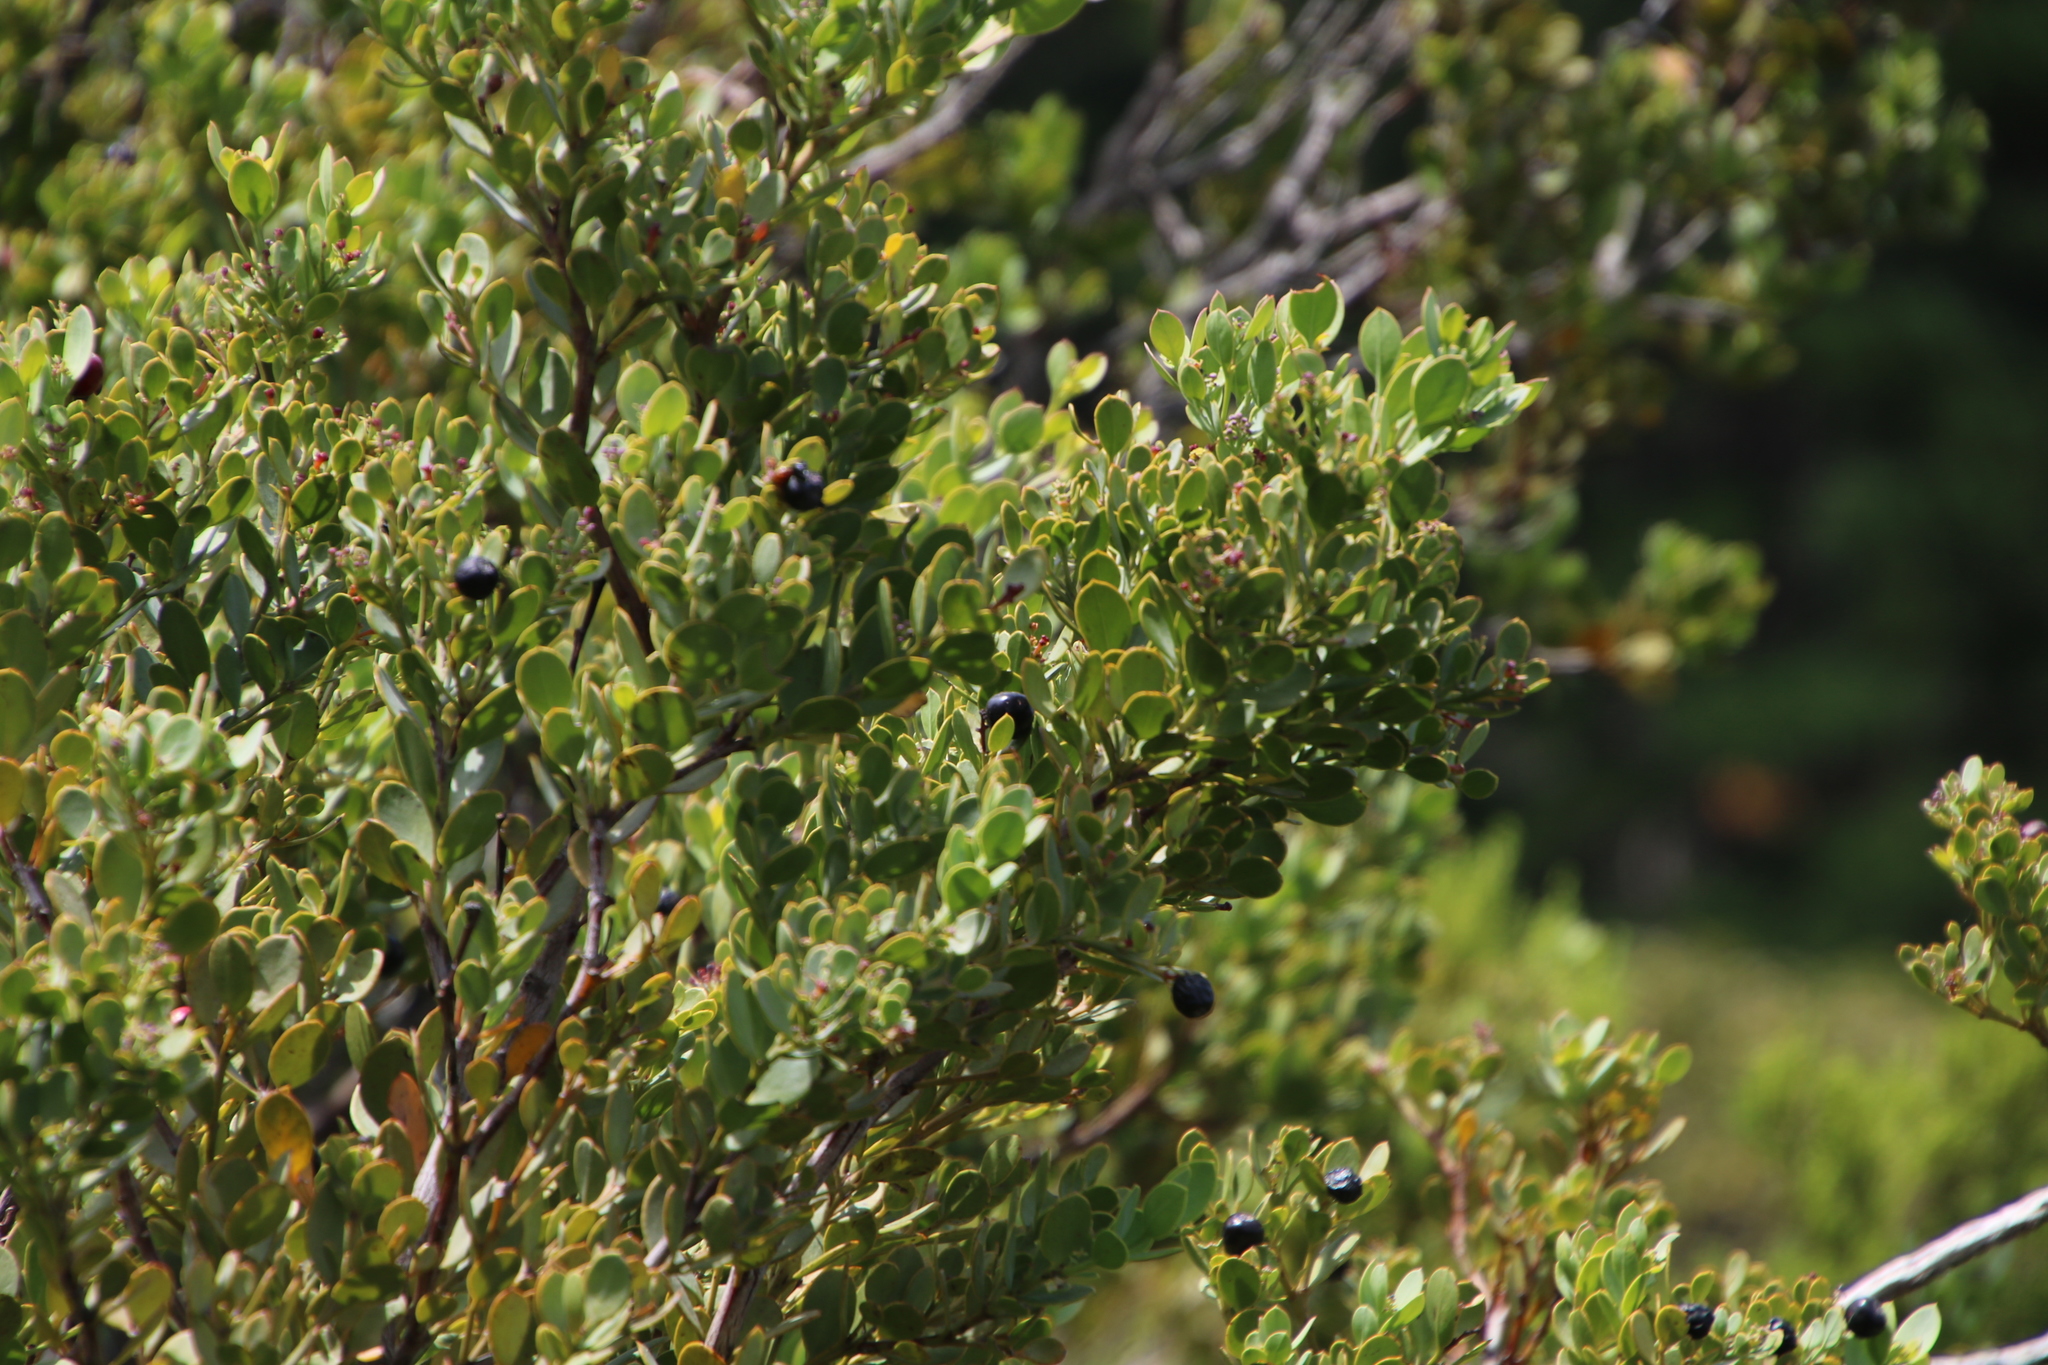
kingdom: Plantae
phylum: Tracheophyta
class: Magnoliopsida
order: Santalales
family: Santalaceae
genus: Osyris
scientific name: Osyris compressa
